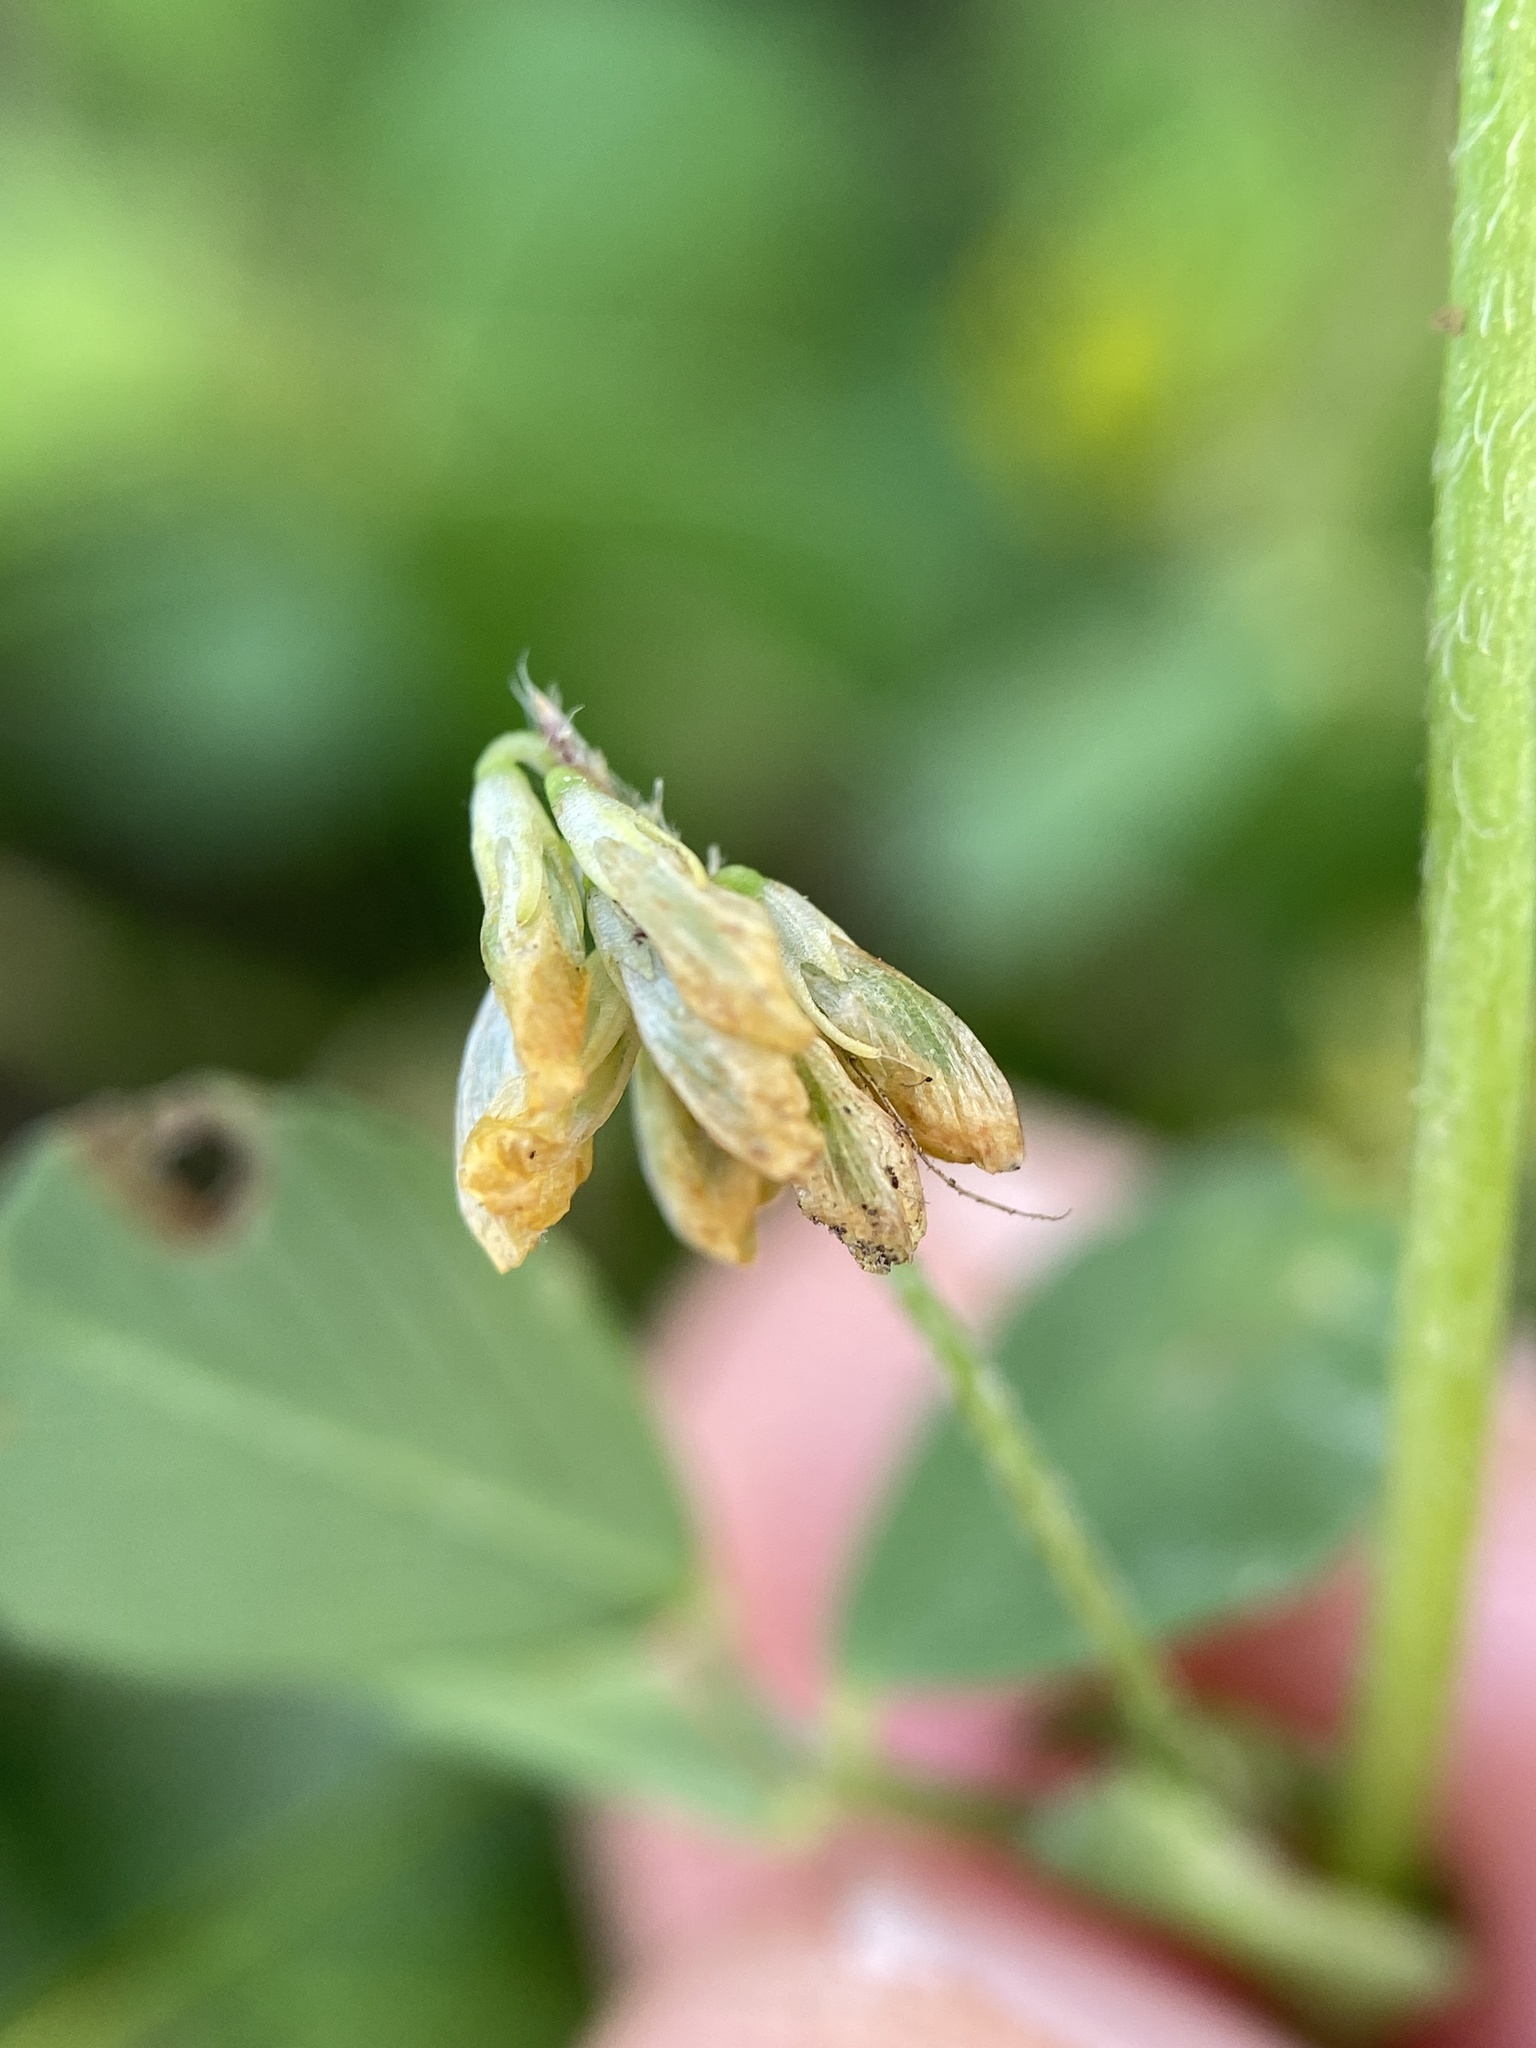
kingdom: Plantae
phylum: Tracheophyta
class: Magnoliopsida
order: Fabales
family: Fabaceae
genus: Trifolium
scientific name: Trifolium dubium
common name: Suckling clover
